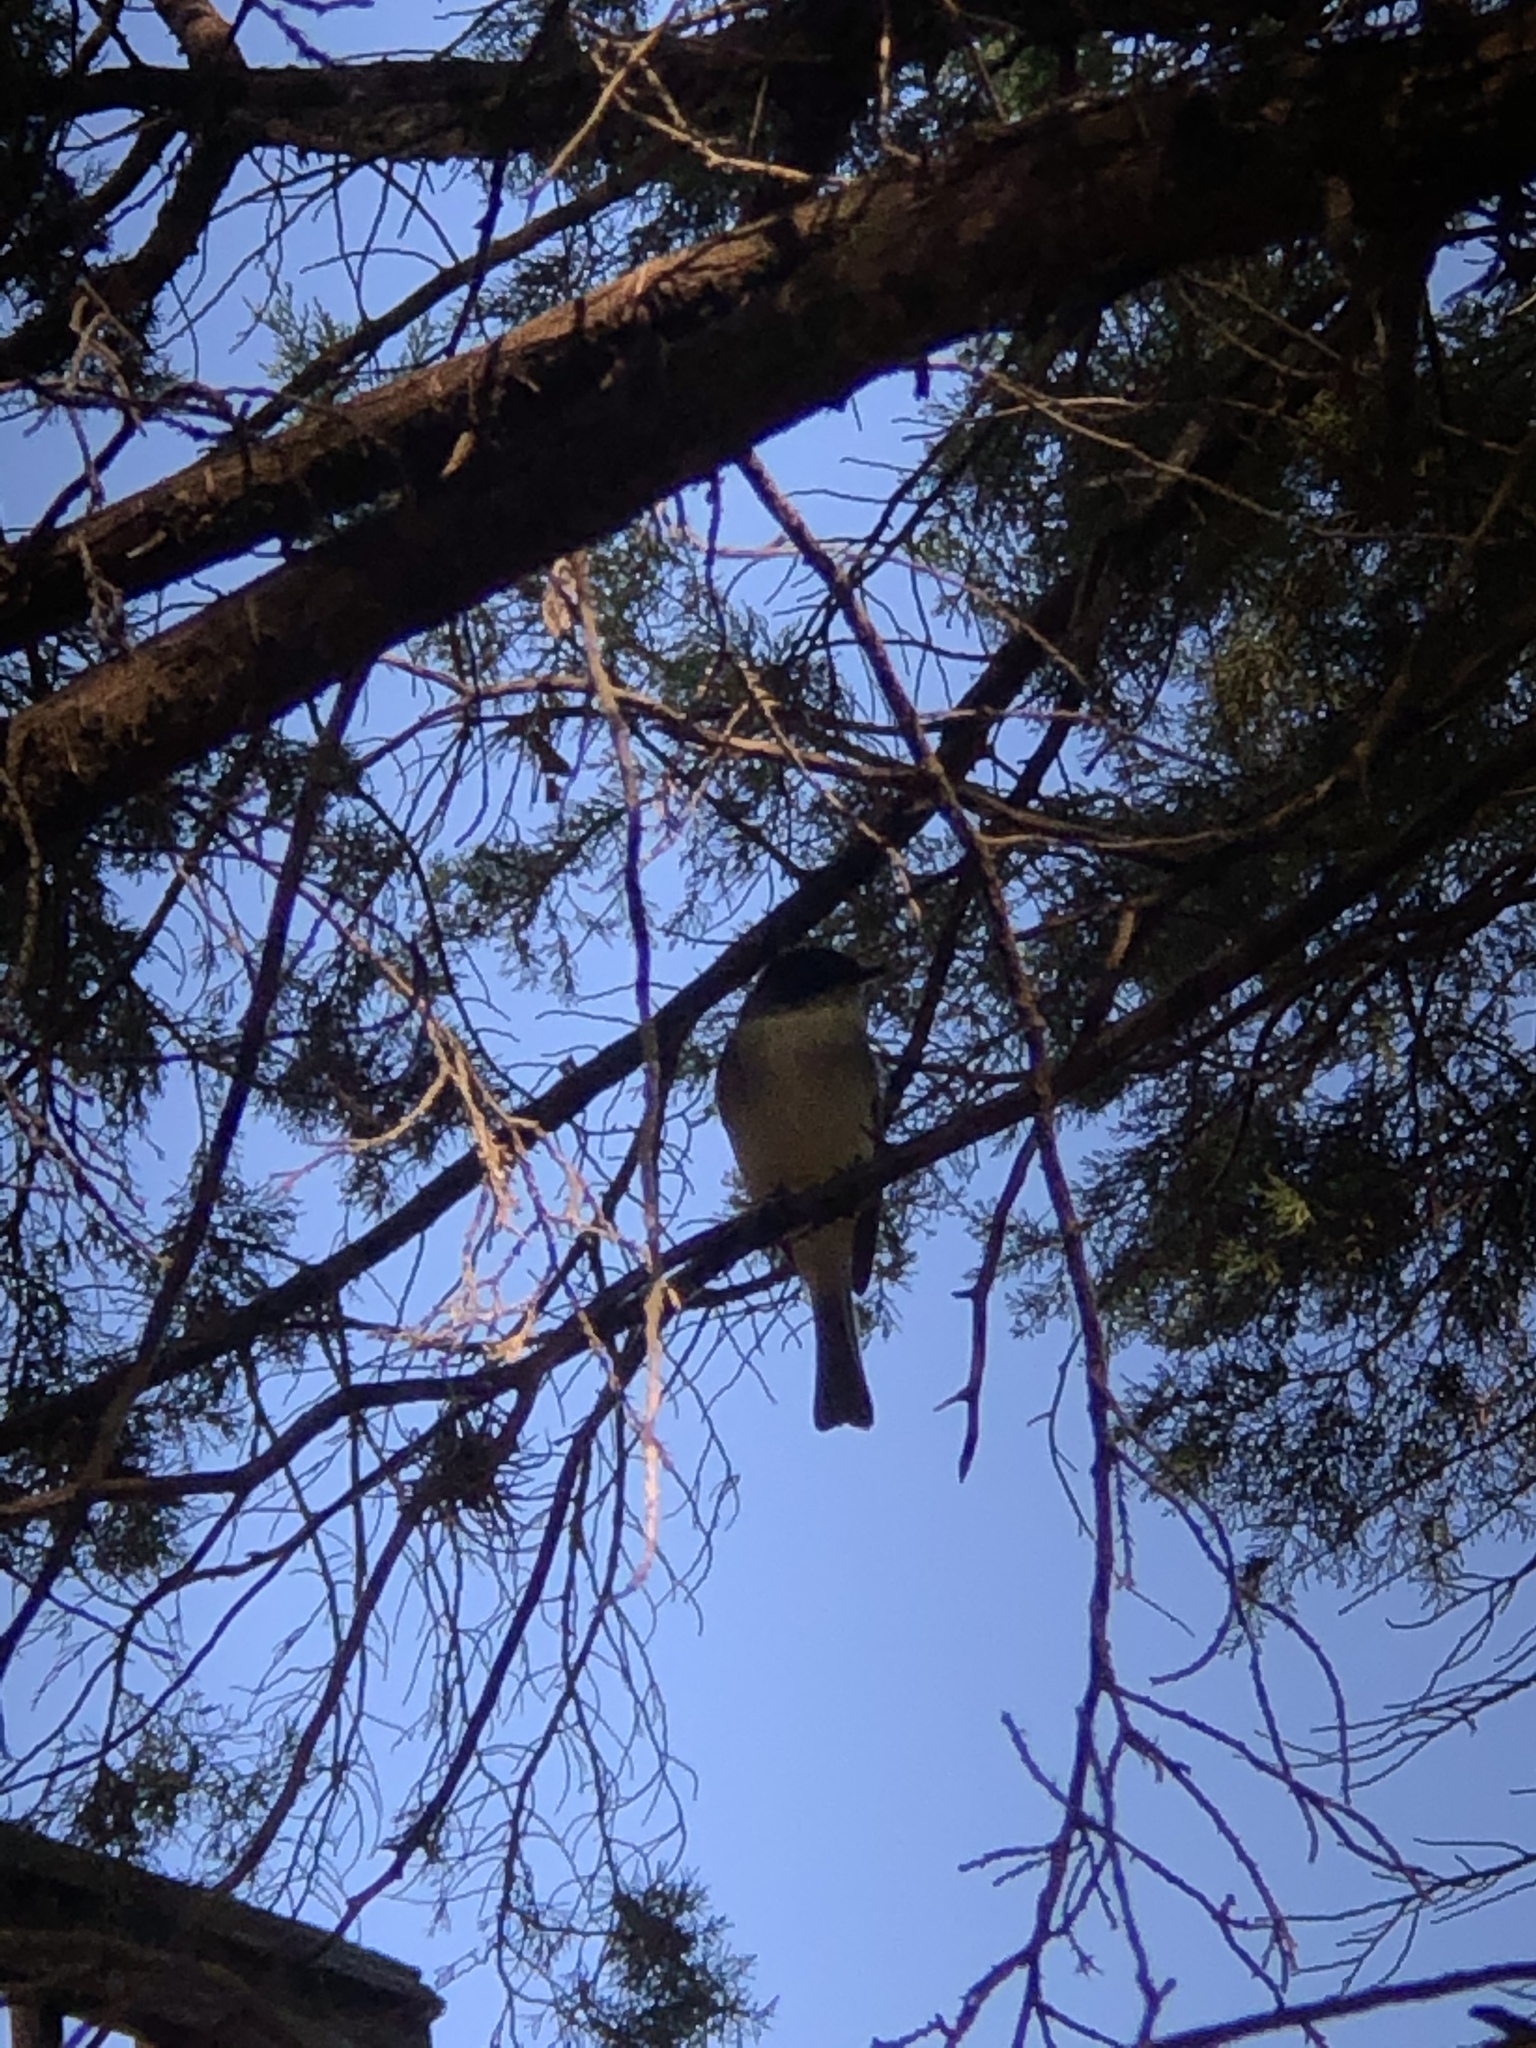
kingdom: Animalia
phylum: Chordata
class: Aves
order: Passeriformes
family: Tyrannidae
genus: Sayornis
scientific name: Sayornis phoebe
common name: Eastern phoebe
